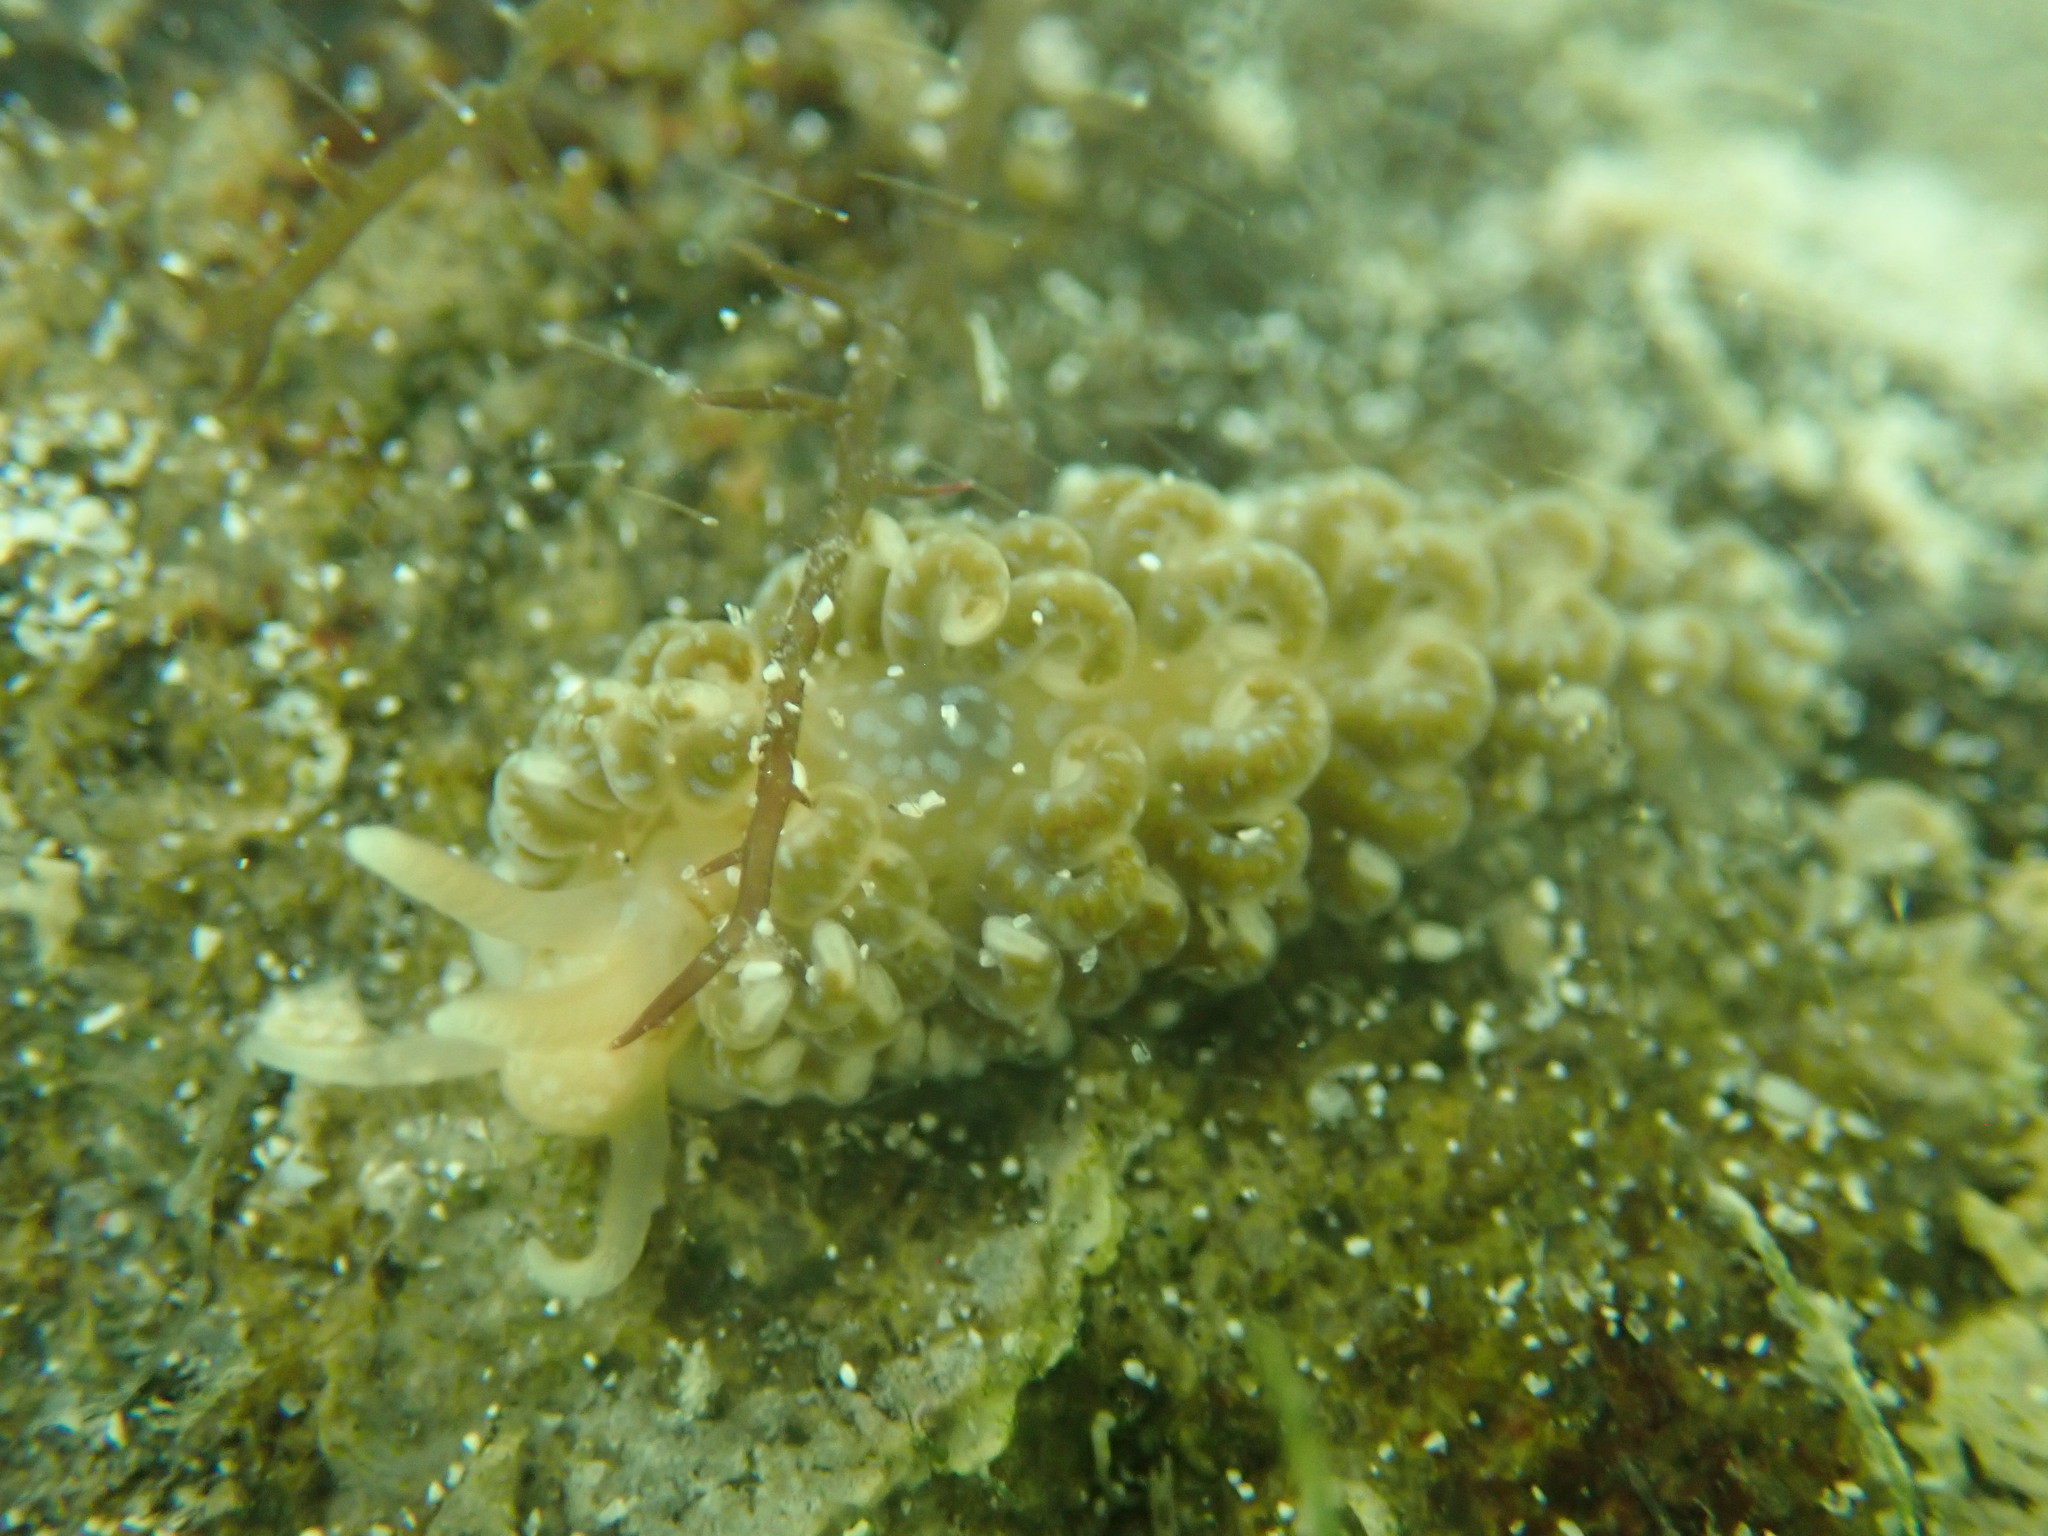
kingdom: Animalia
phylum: Mollusca
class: Gastropoda
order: Nudibranchia
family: Aeolidiidae
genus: Spurilla
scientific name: Spurilla braziliana
